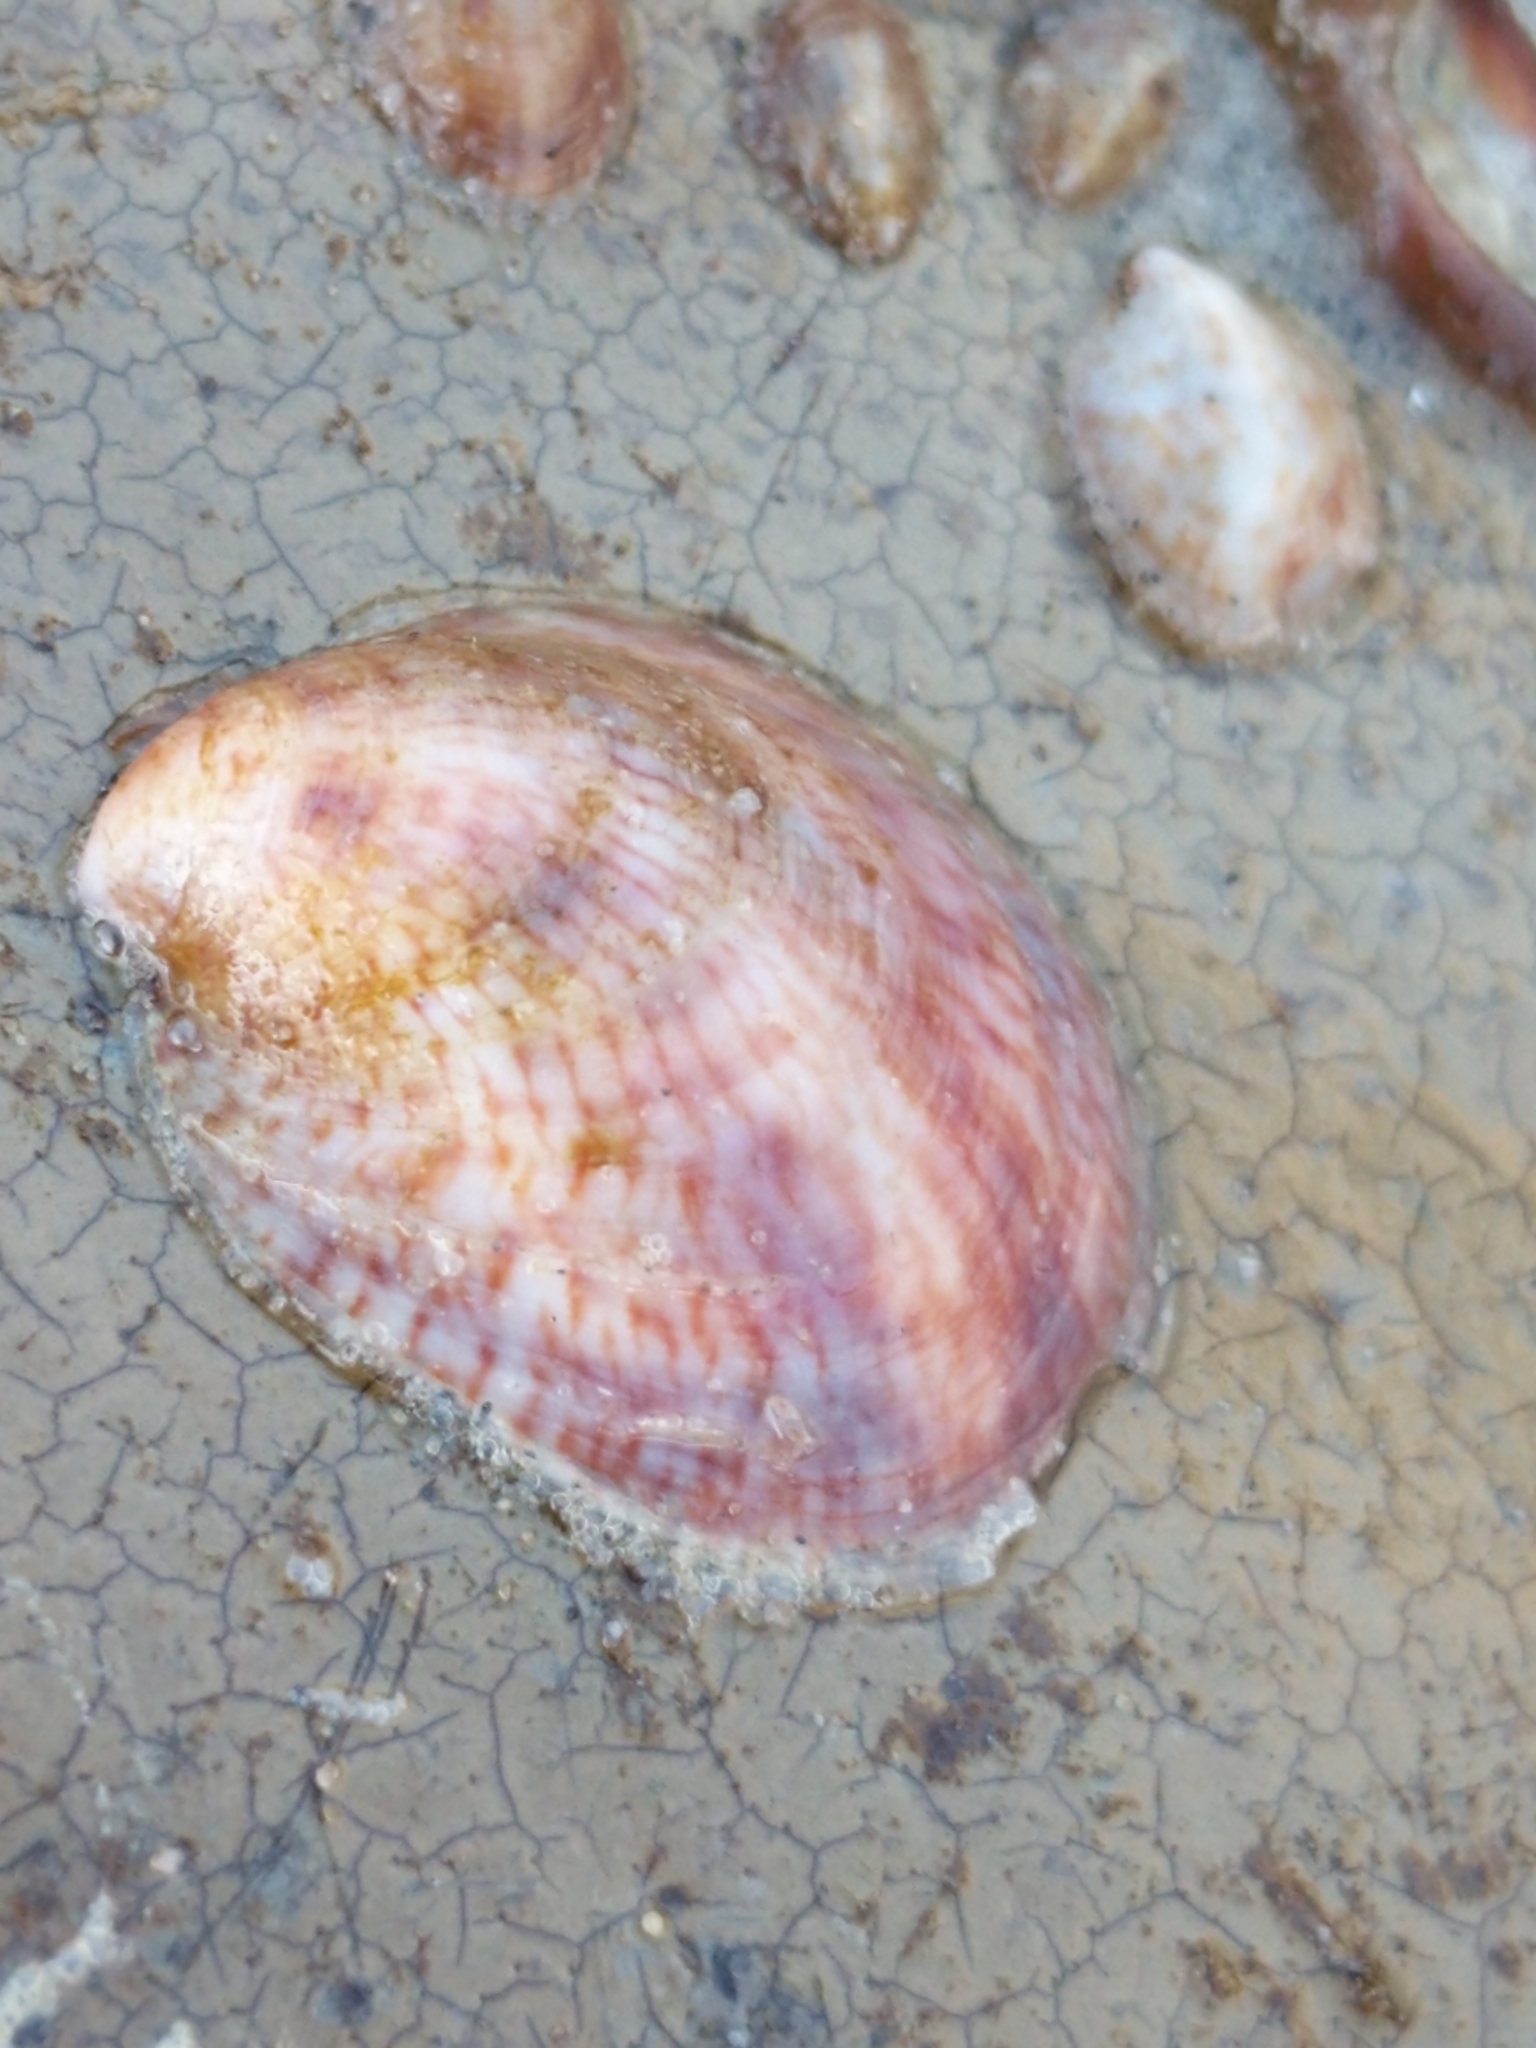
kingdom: Animalia
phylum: Mollusca
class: Gastropoda
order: Littorinimorpha
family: Calyptraeidae
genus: Crepidula
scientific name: Crepidula fornicata
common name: Slipper limpet
